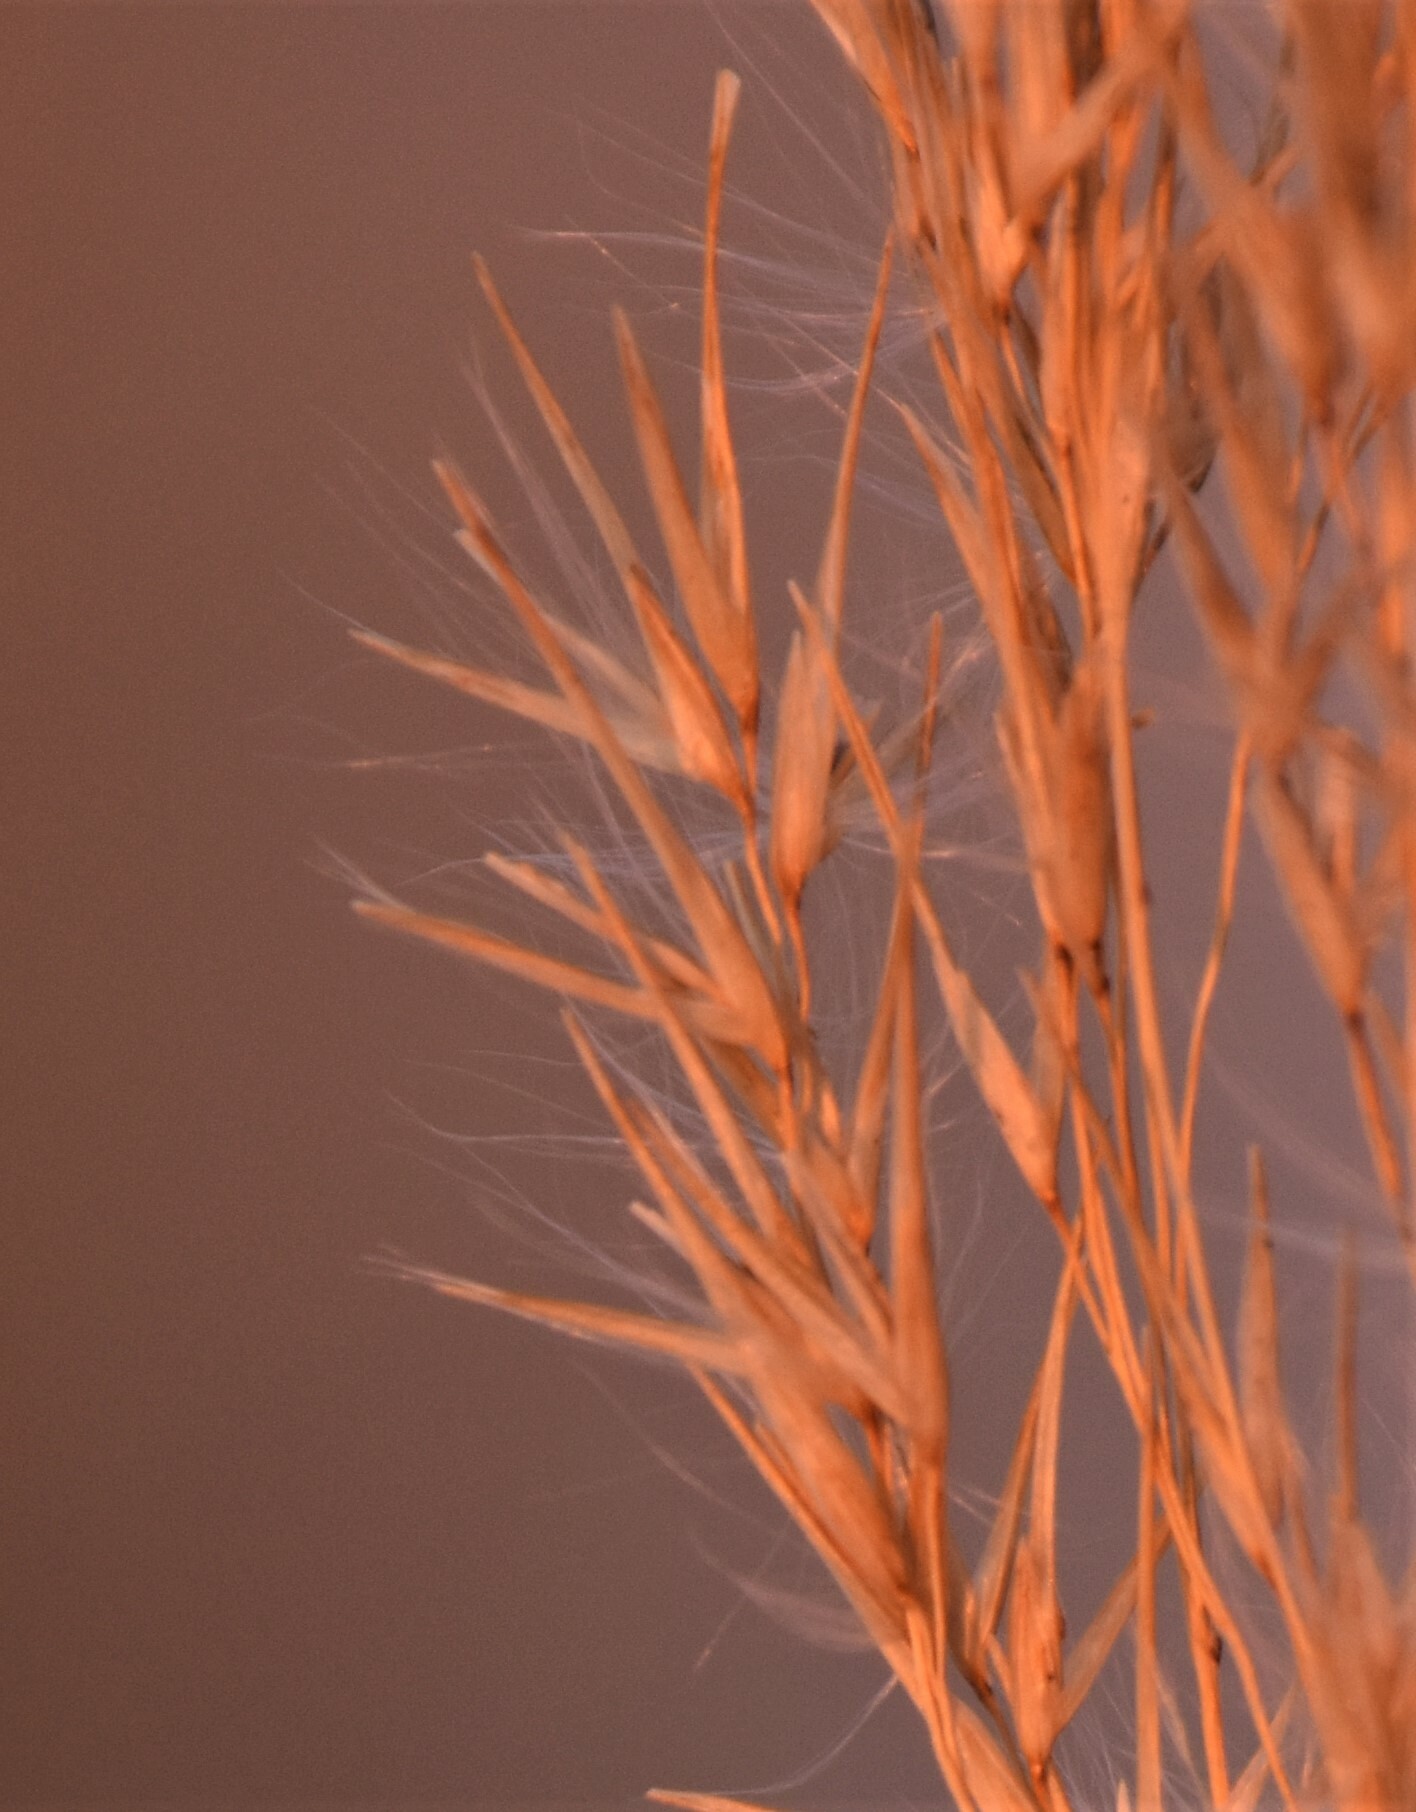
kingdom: Plantae
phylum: Tracheophyta
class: Liliopsida
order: Poales
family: Poaceae
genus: Phragmites
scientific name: Phragmites australis
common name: Common reed
